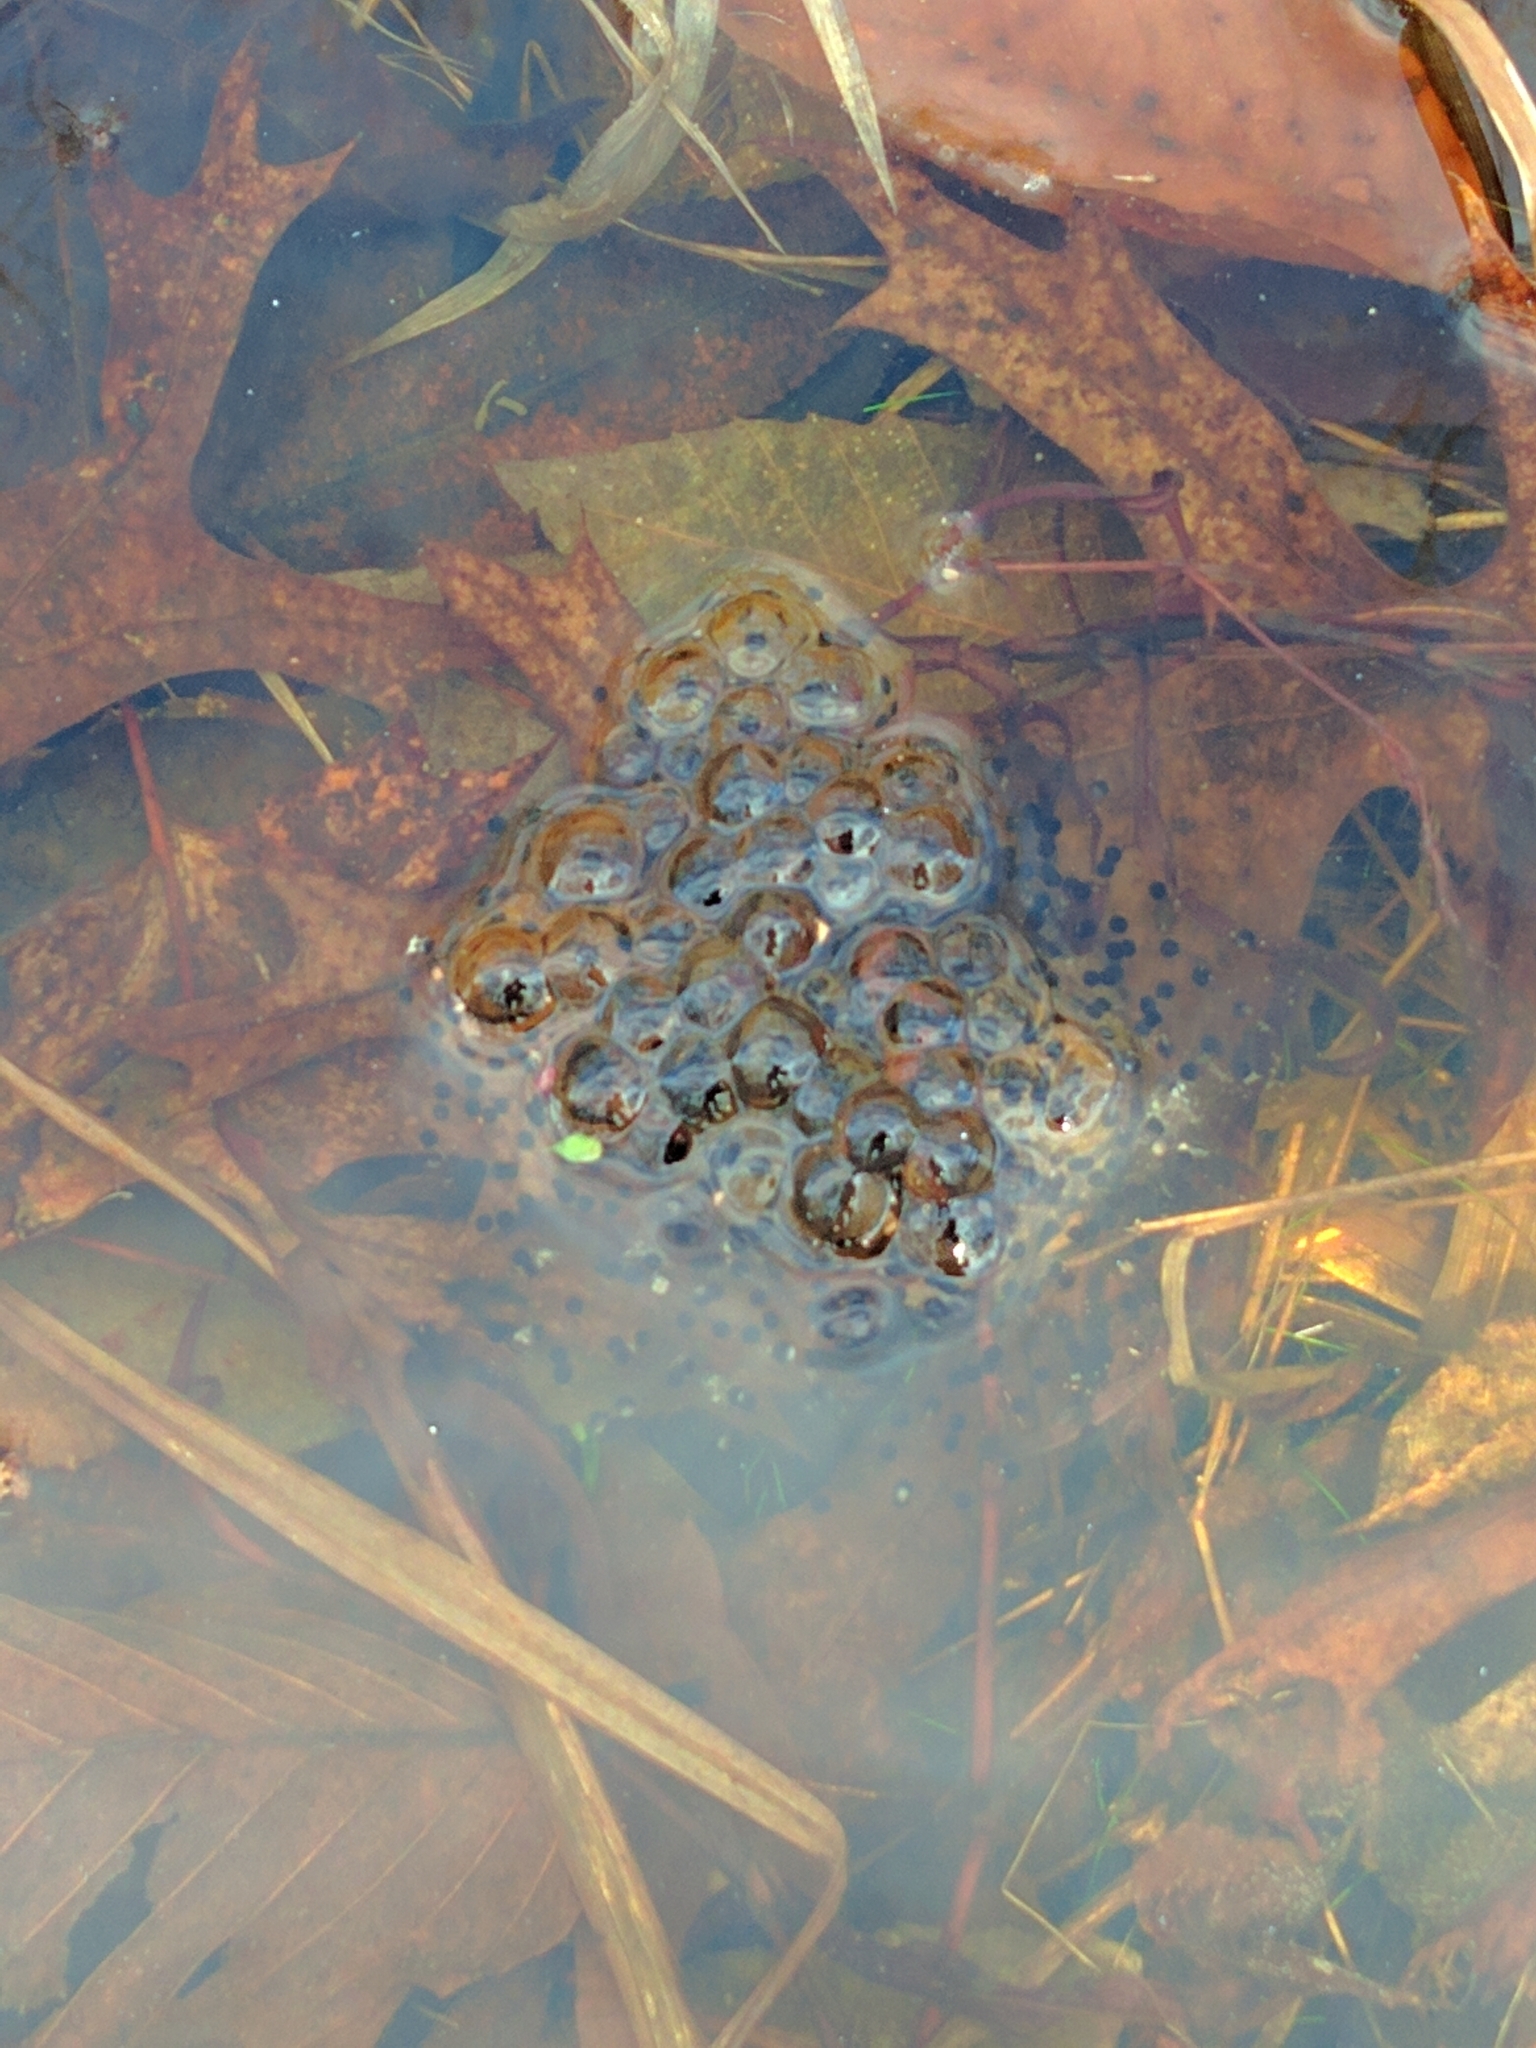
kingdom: Animalia
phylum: Chordata
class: Amphibia
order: Anura
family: Ranidae
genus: Lithobates
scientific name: Lithobates sylvaticus
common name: Wood frog
